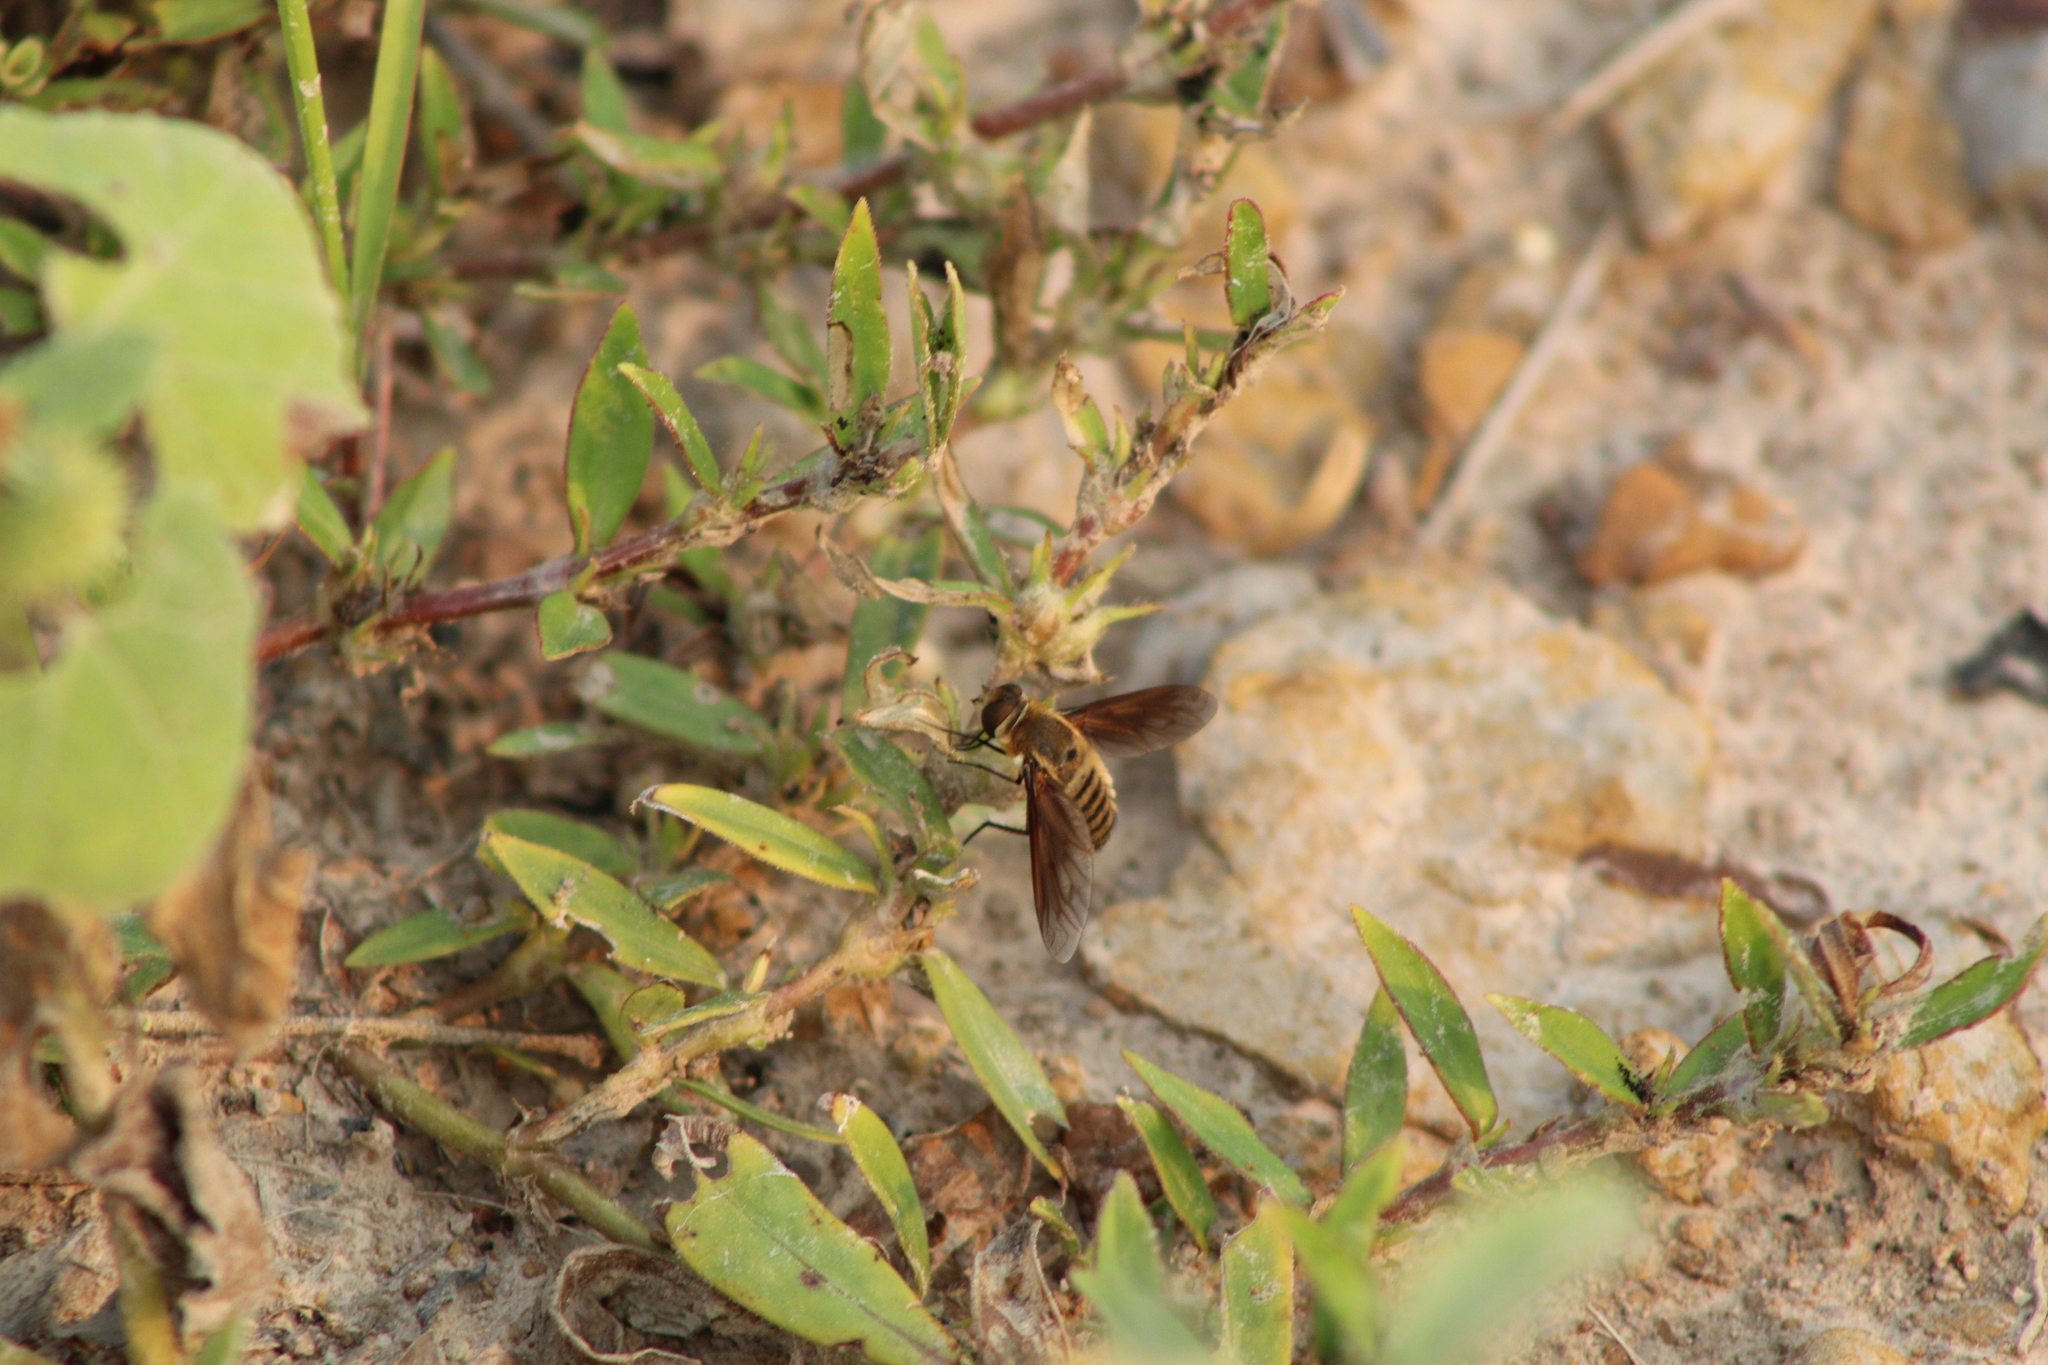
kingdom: Animalia
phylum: Arthropoda
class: Insecta
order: Diptera
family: Bombyliidae
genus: Poecilanthrax
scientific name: Poecilanthrax lucifer
